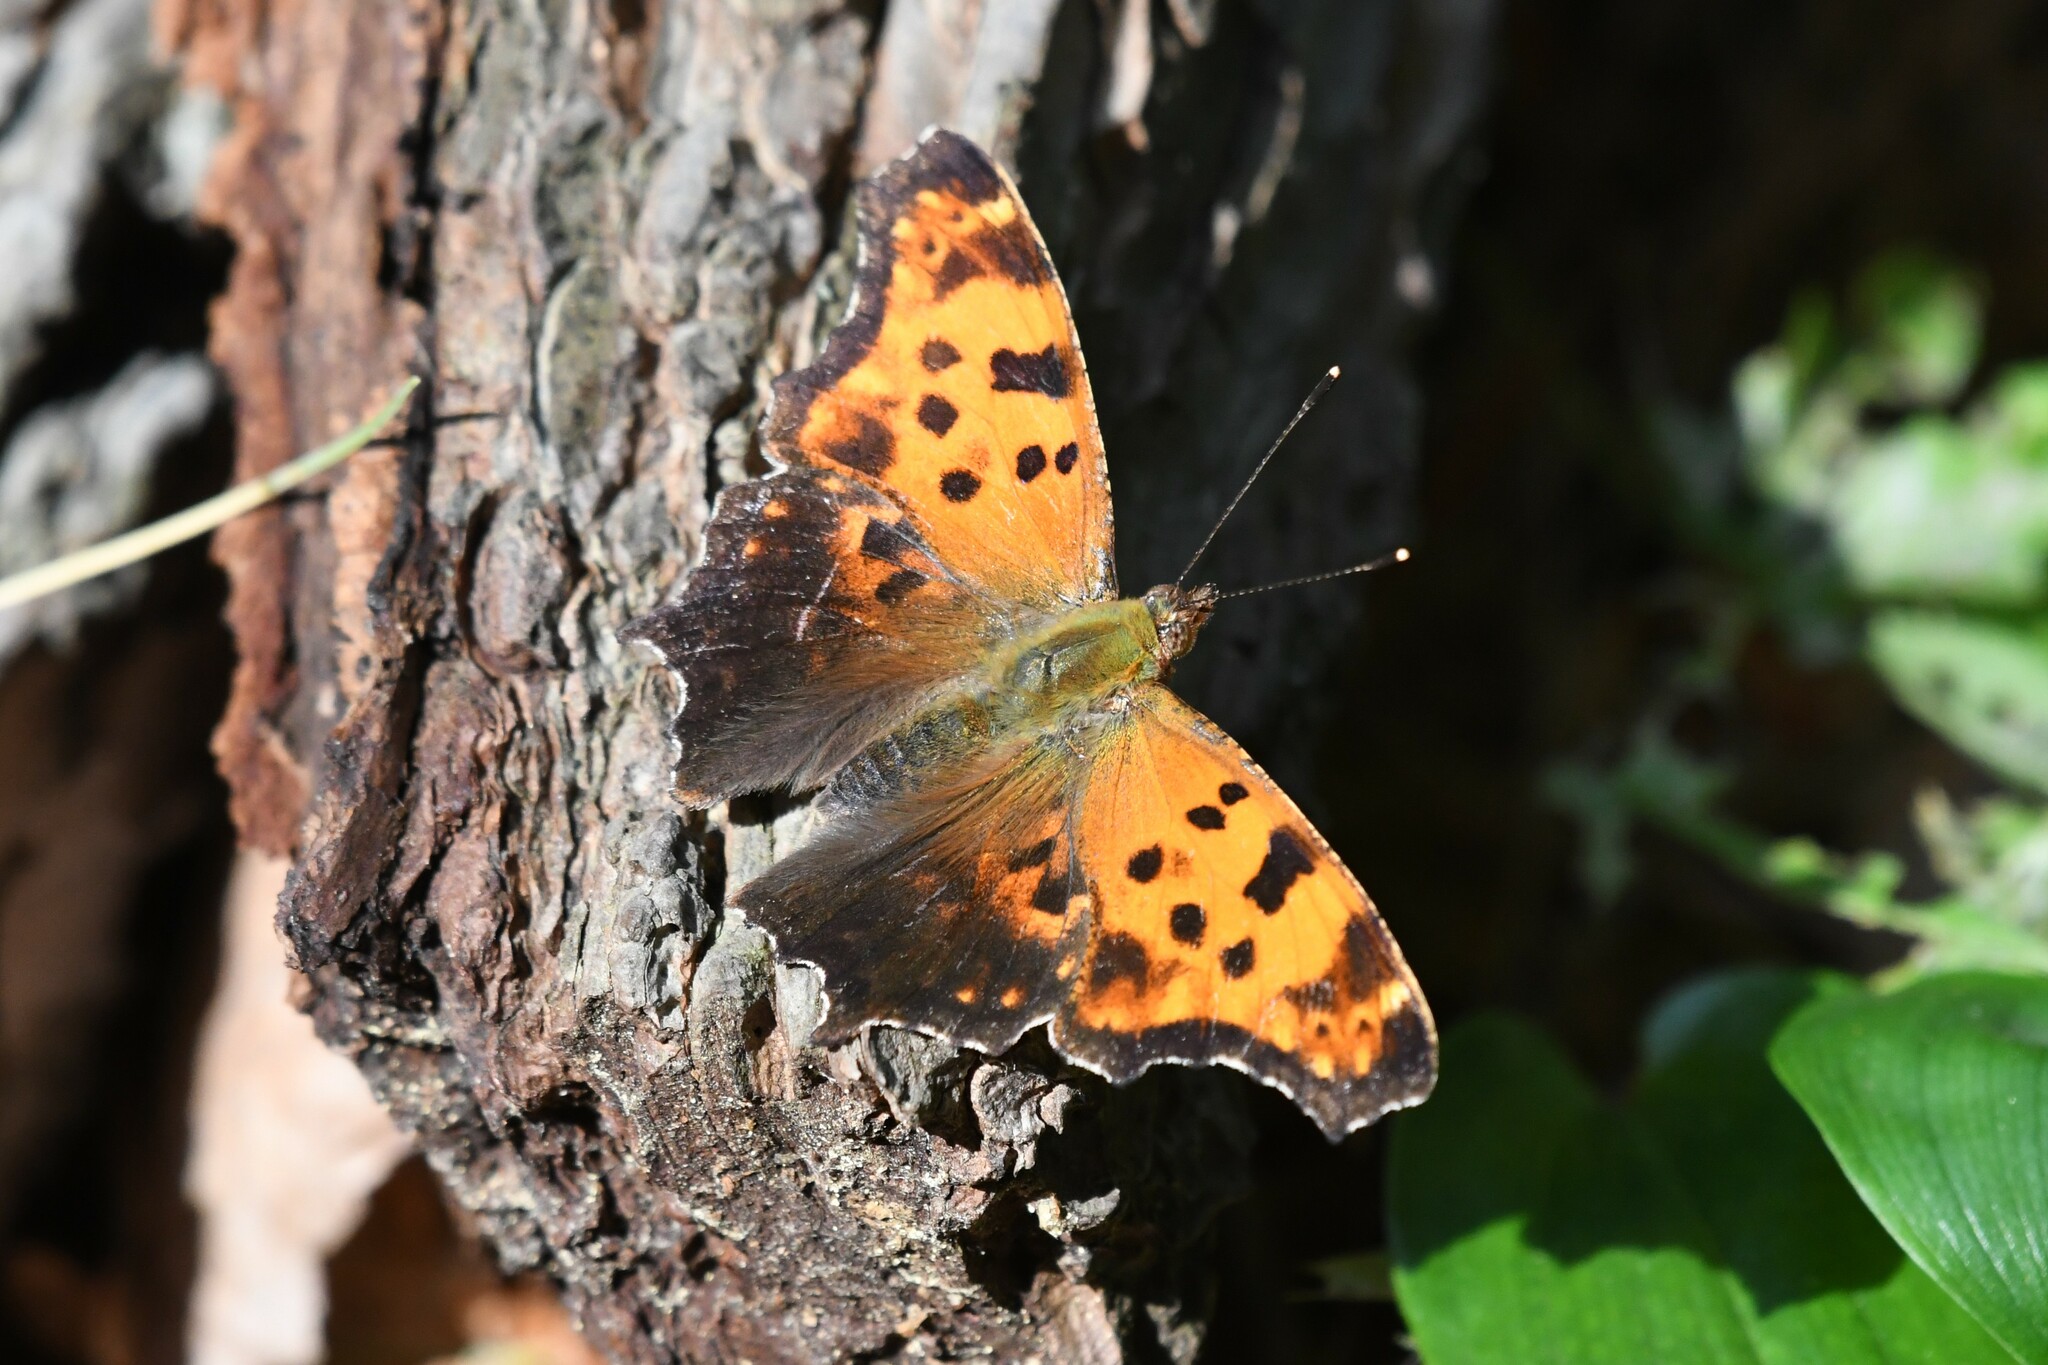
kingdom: Animalia
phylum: Arthropoda
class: Insecta
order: Lepidoptera
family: Nymphalidae
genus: Polygonia
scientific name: Polygonia comma
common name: Eastern comma
